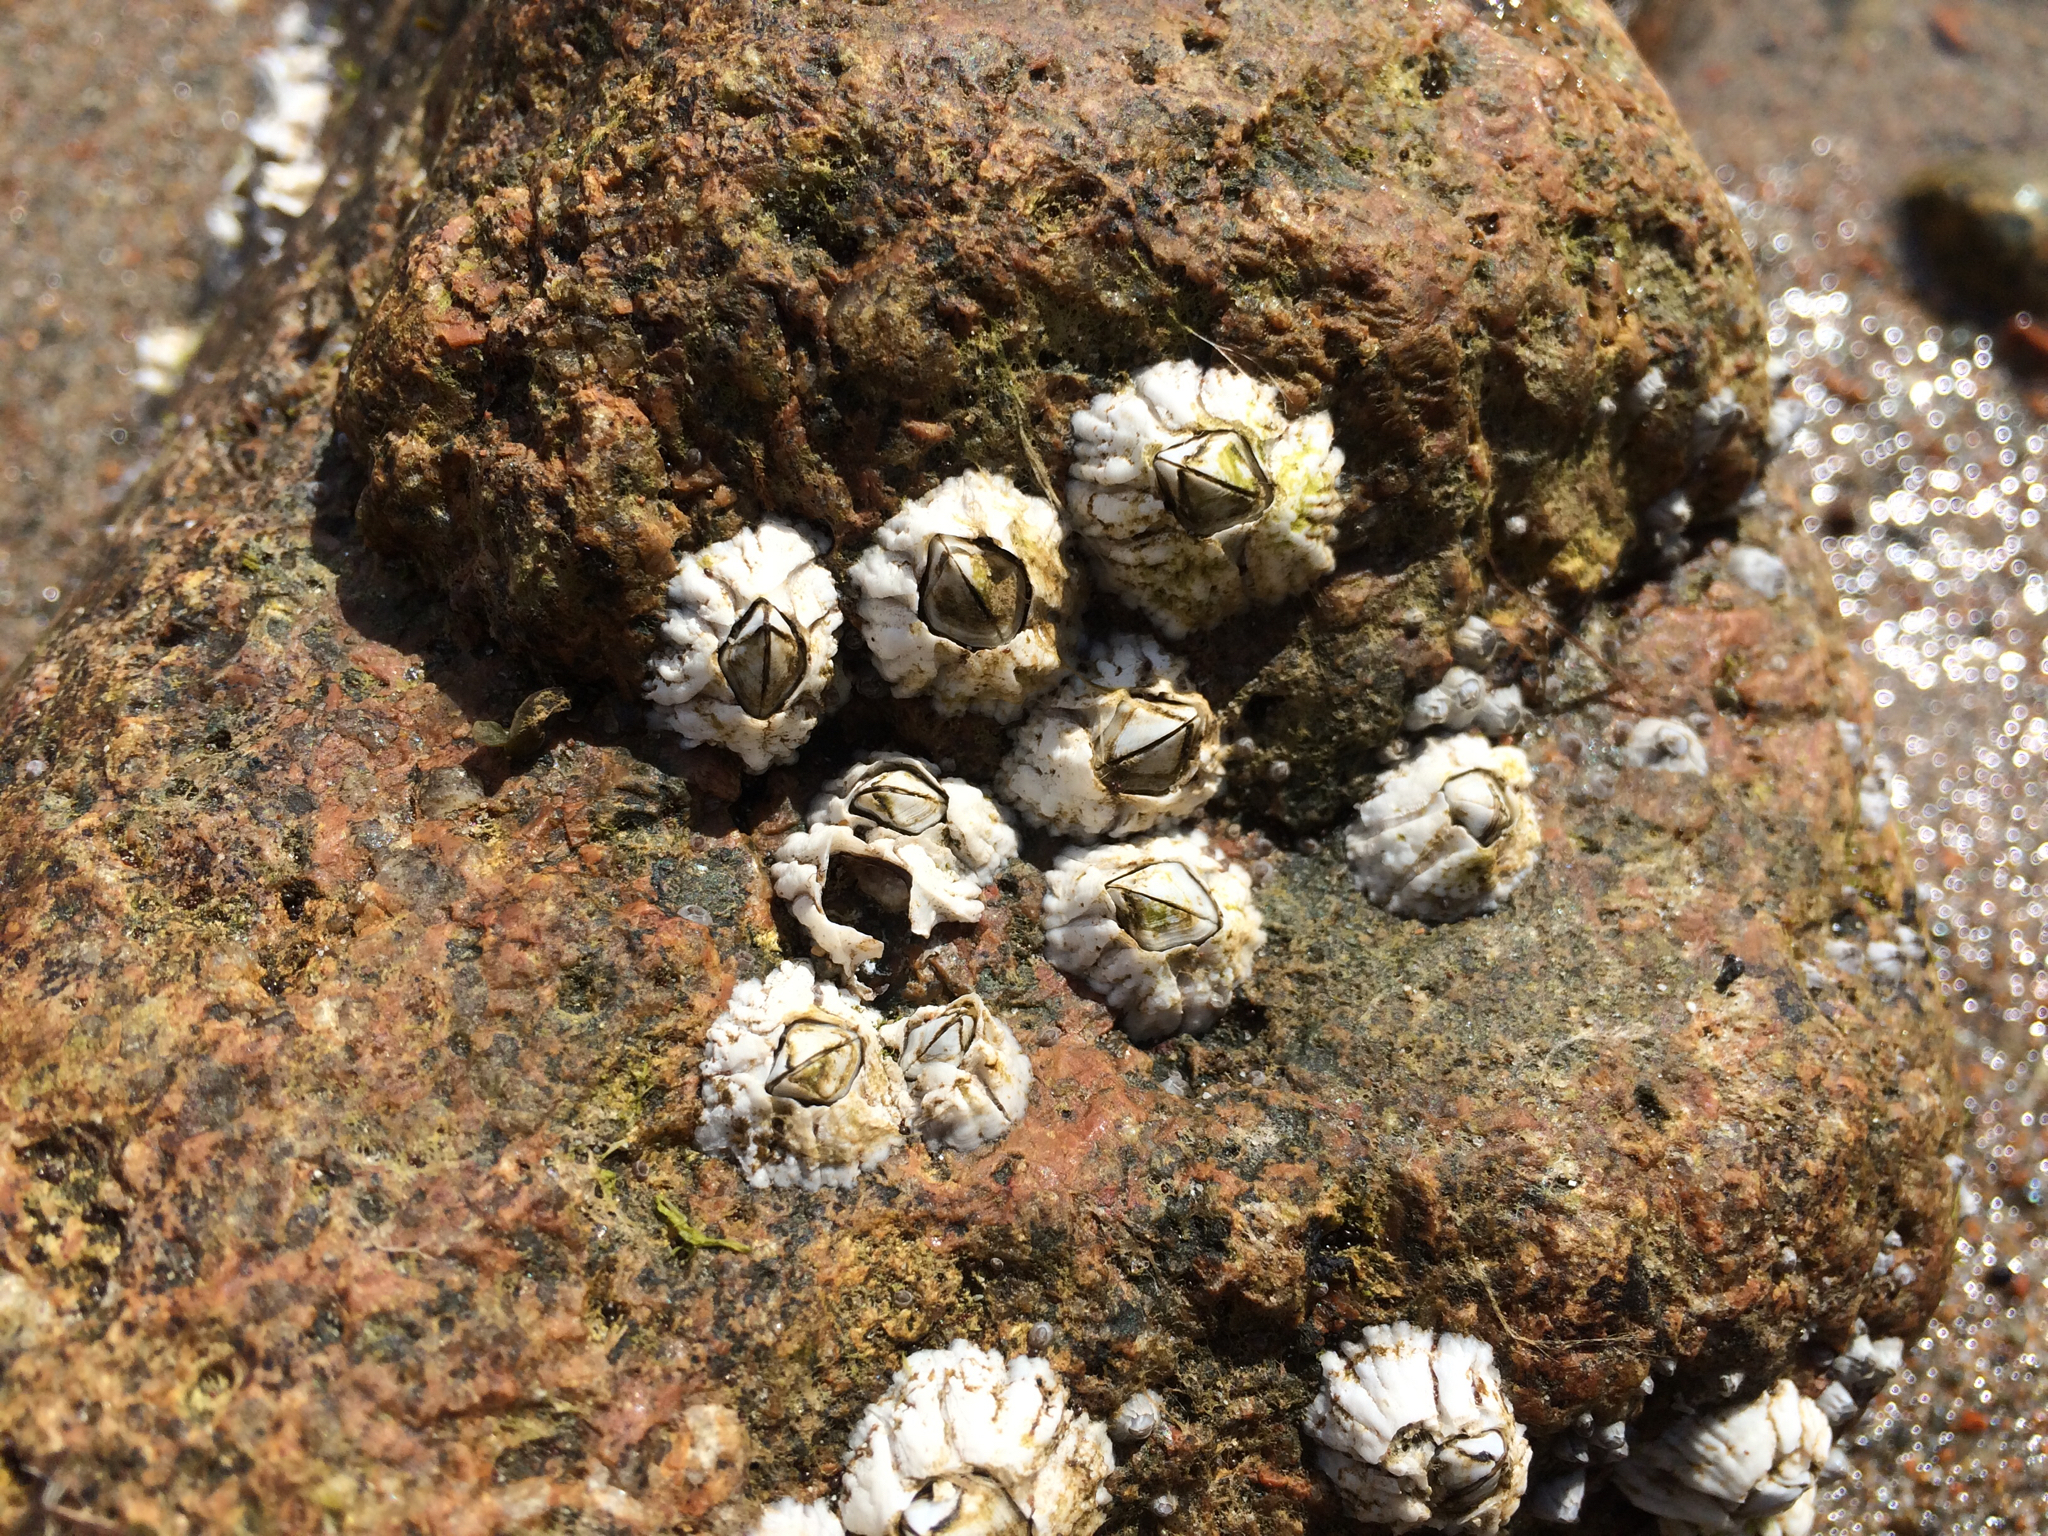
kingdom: Animalia
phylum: Arthropoda
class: Maxillopoda
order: Sessilia
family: Archaeobalanidae
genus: Semibalanus
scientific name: Semibalanus balanoides
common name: Acorn barnacle
